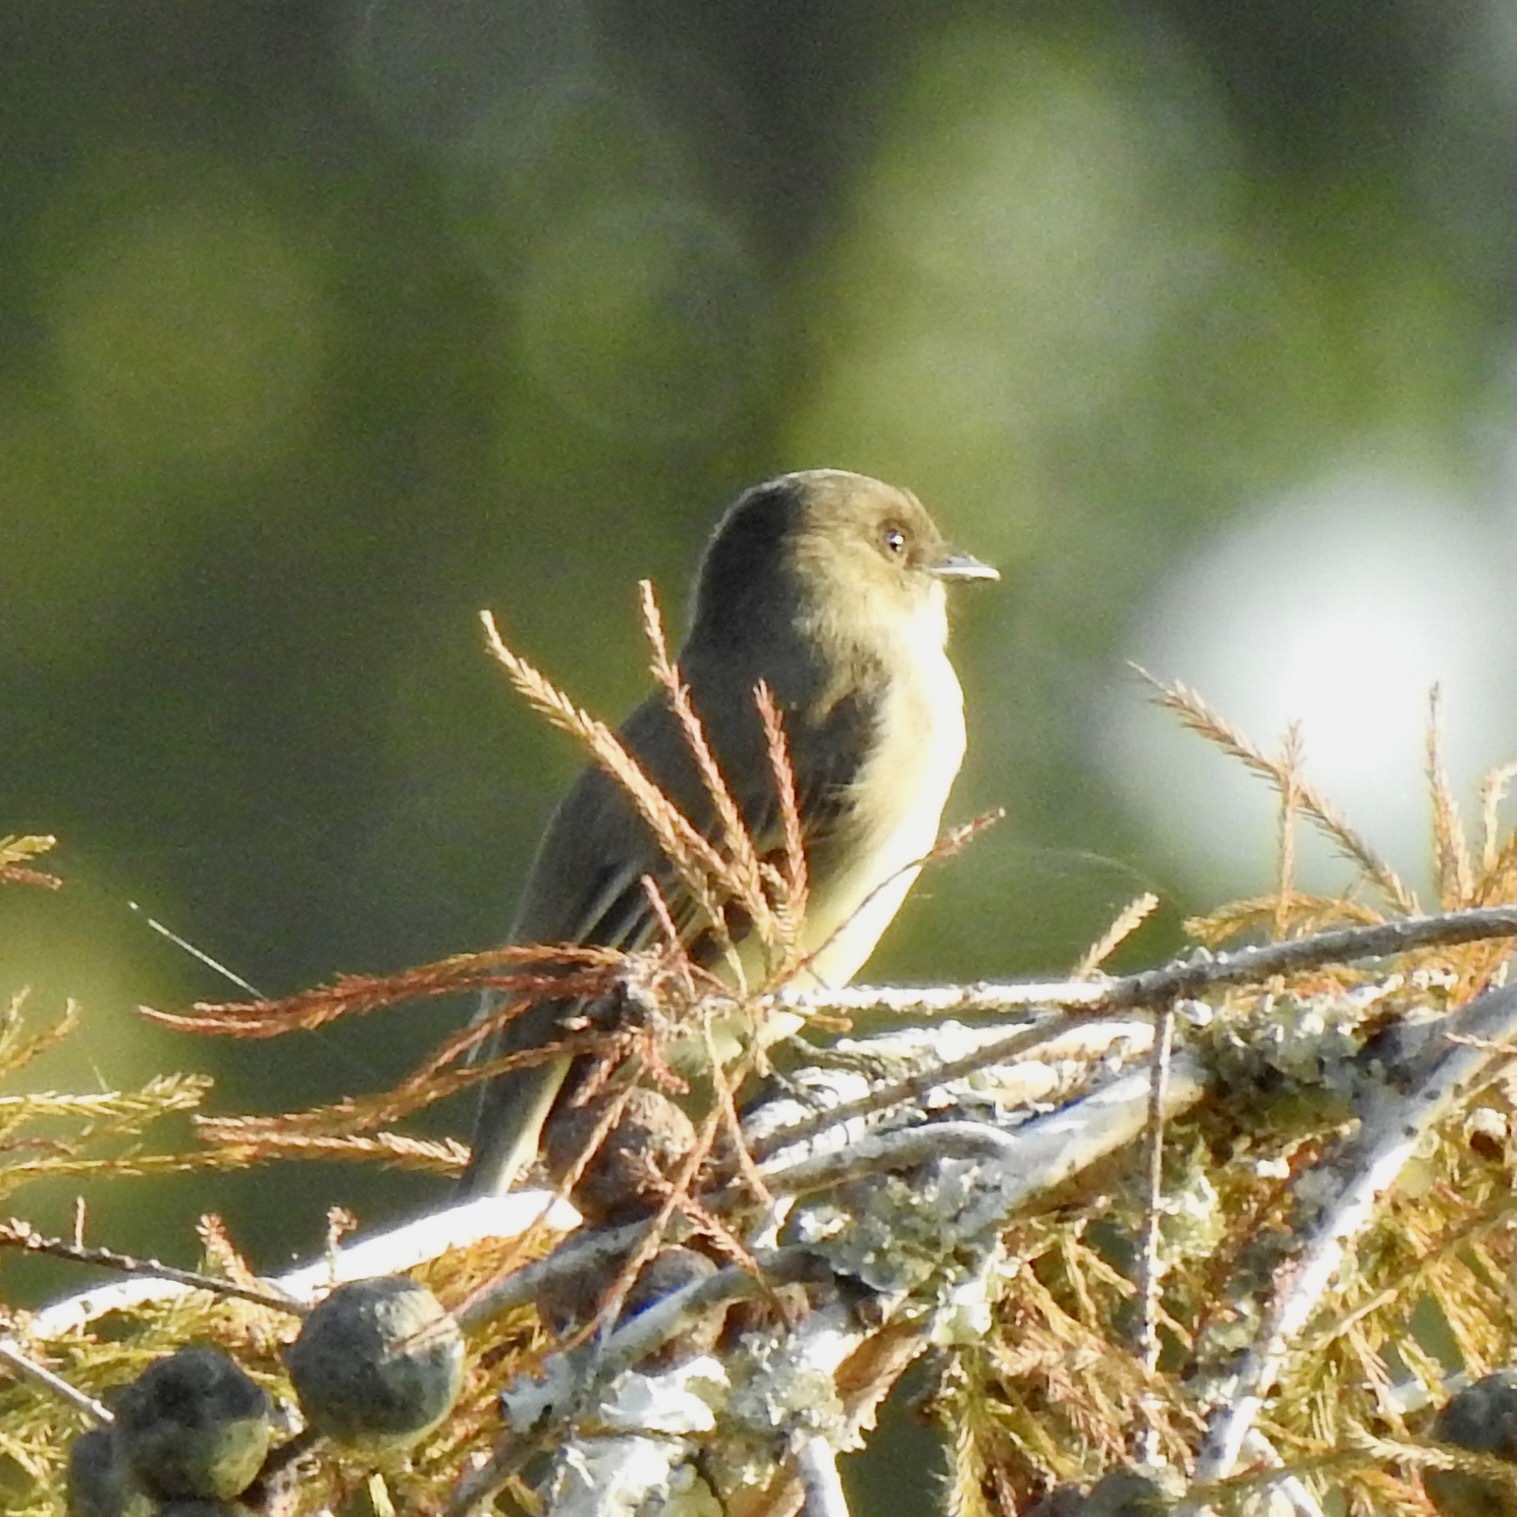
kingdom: Animalia
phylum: Chordata
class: Aves
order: Passeriformes
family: Tyrannidae
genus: Sayornis
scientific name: Sayornis phoebe
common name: Eastern phoebe
